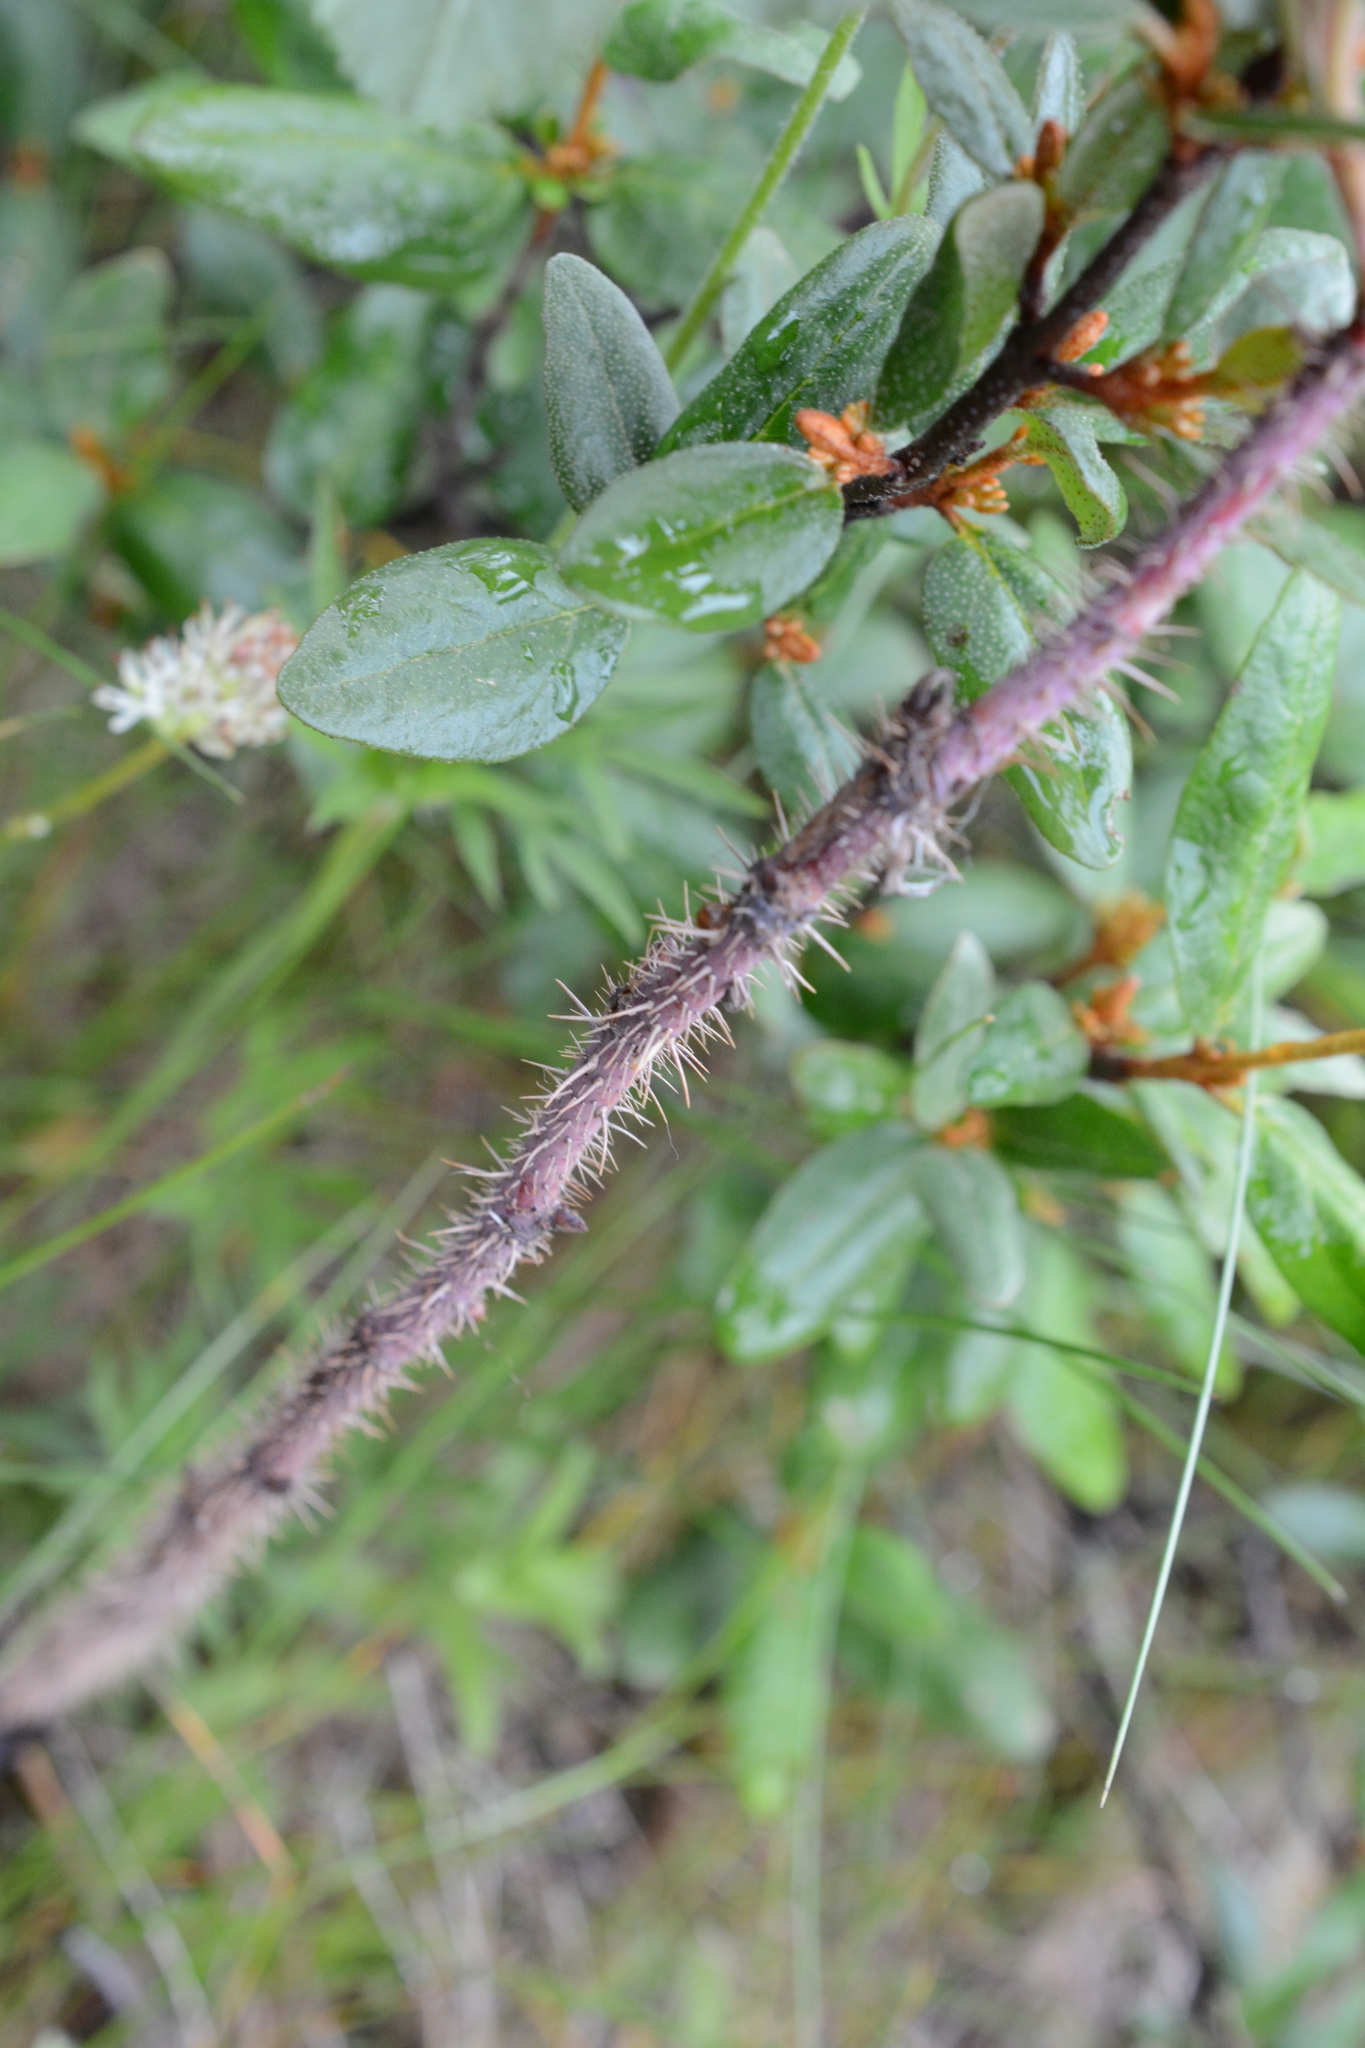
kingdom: Plantae
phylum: Tracheophyta
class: Magnoliopsida
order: Rosales
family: Rosaceae
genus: Rosa
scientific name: Rosa acicularis
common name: Prickly rose
